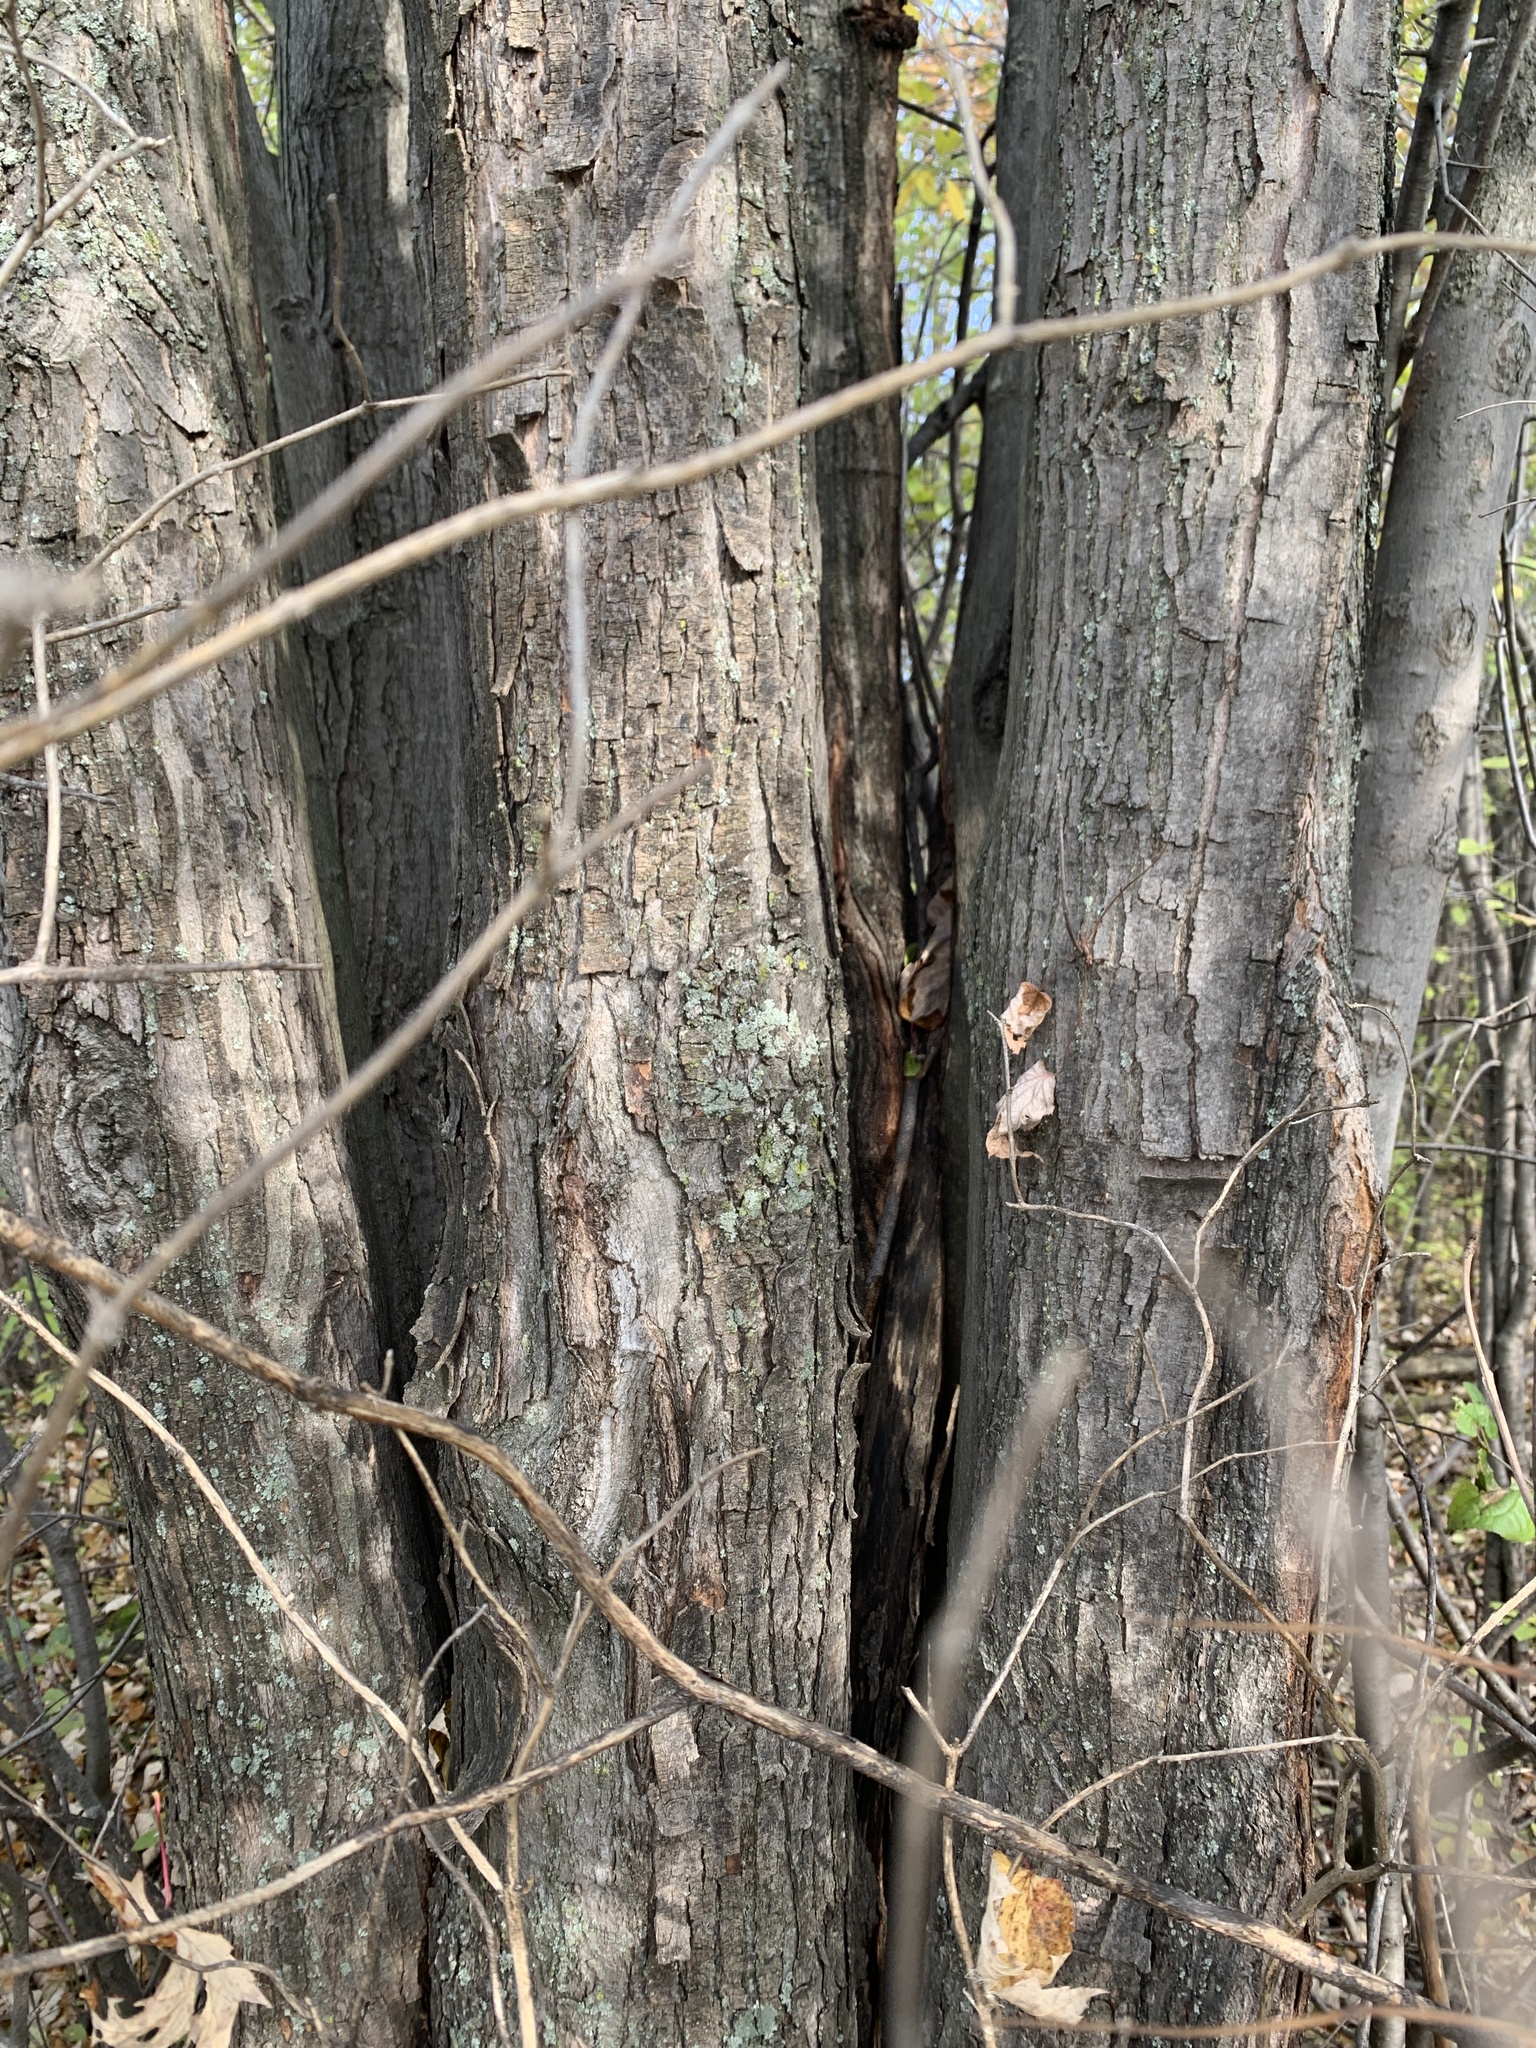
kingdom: Plantae
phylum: Tracheophyta
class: Magnoliopsida
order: Sapindales
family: Sapindaceae
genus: Acer
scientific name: Acer rubrum
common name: Red maple
